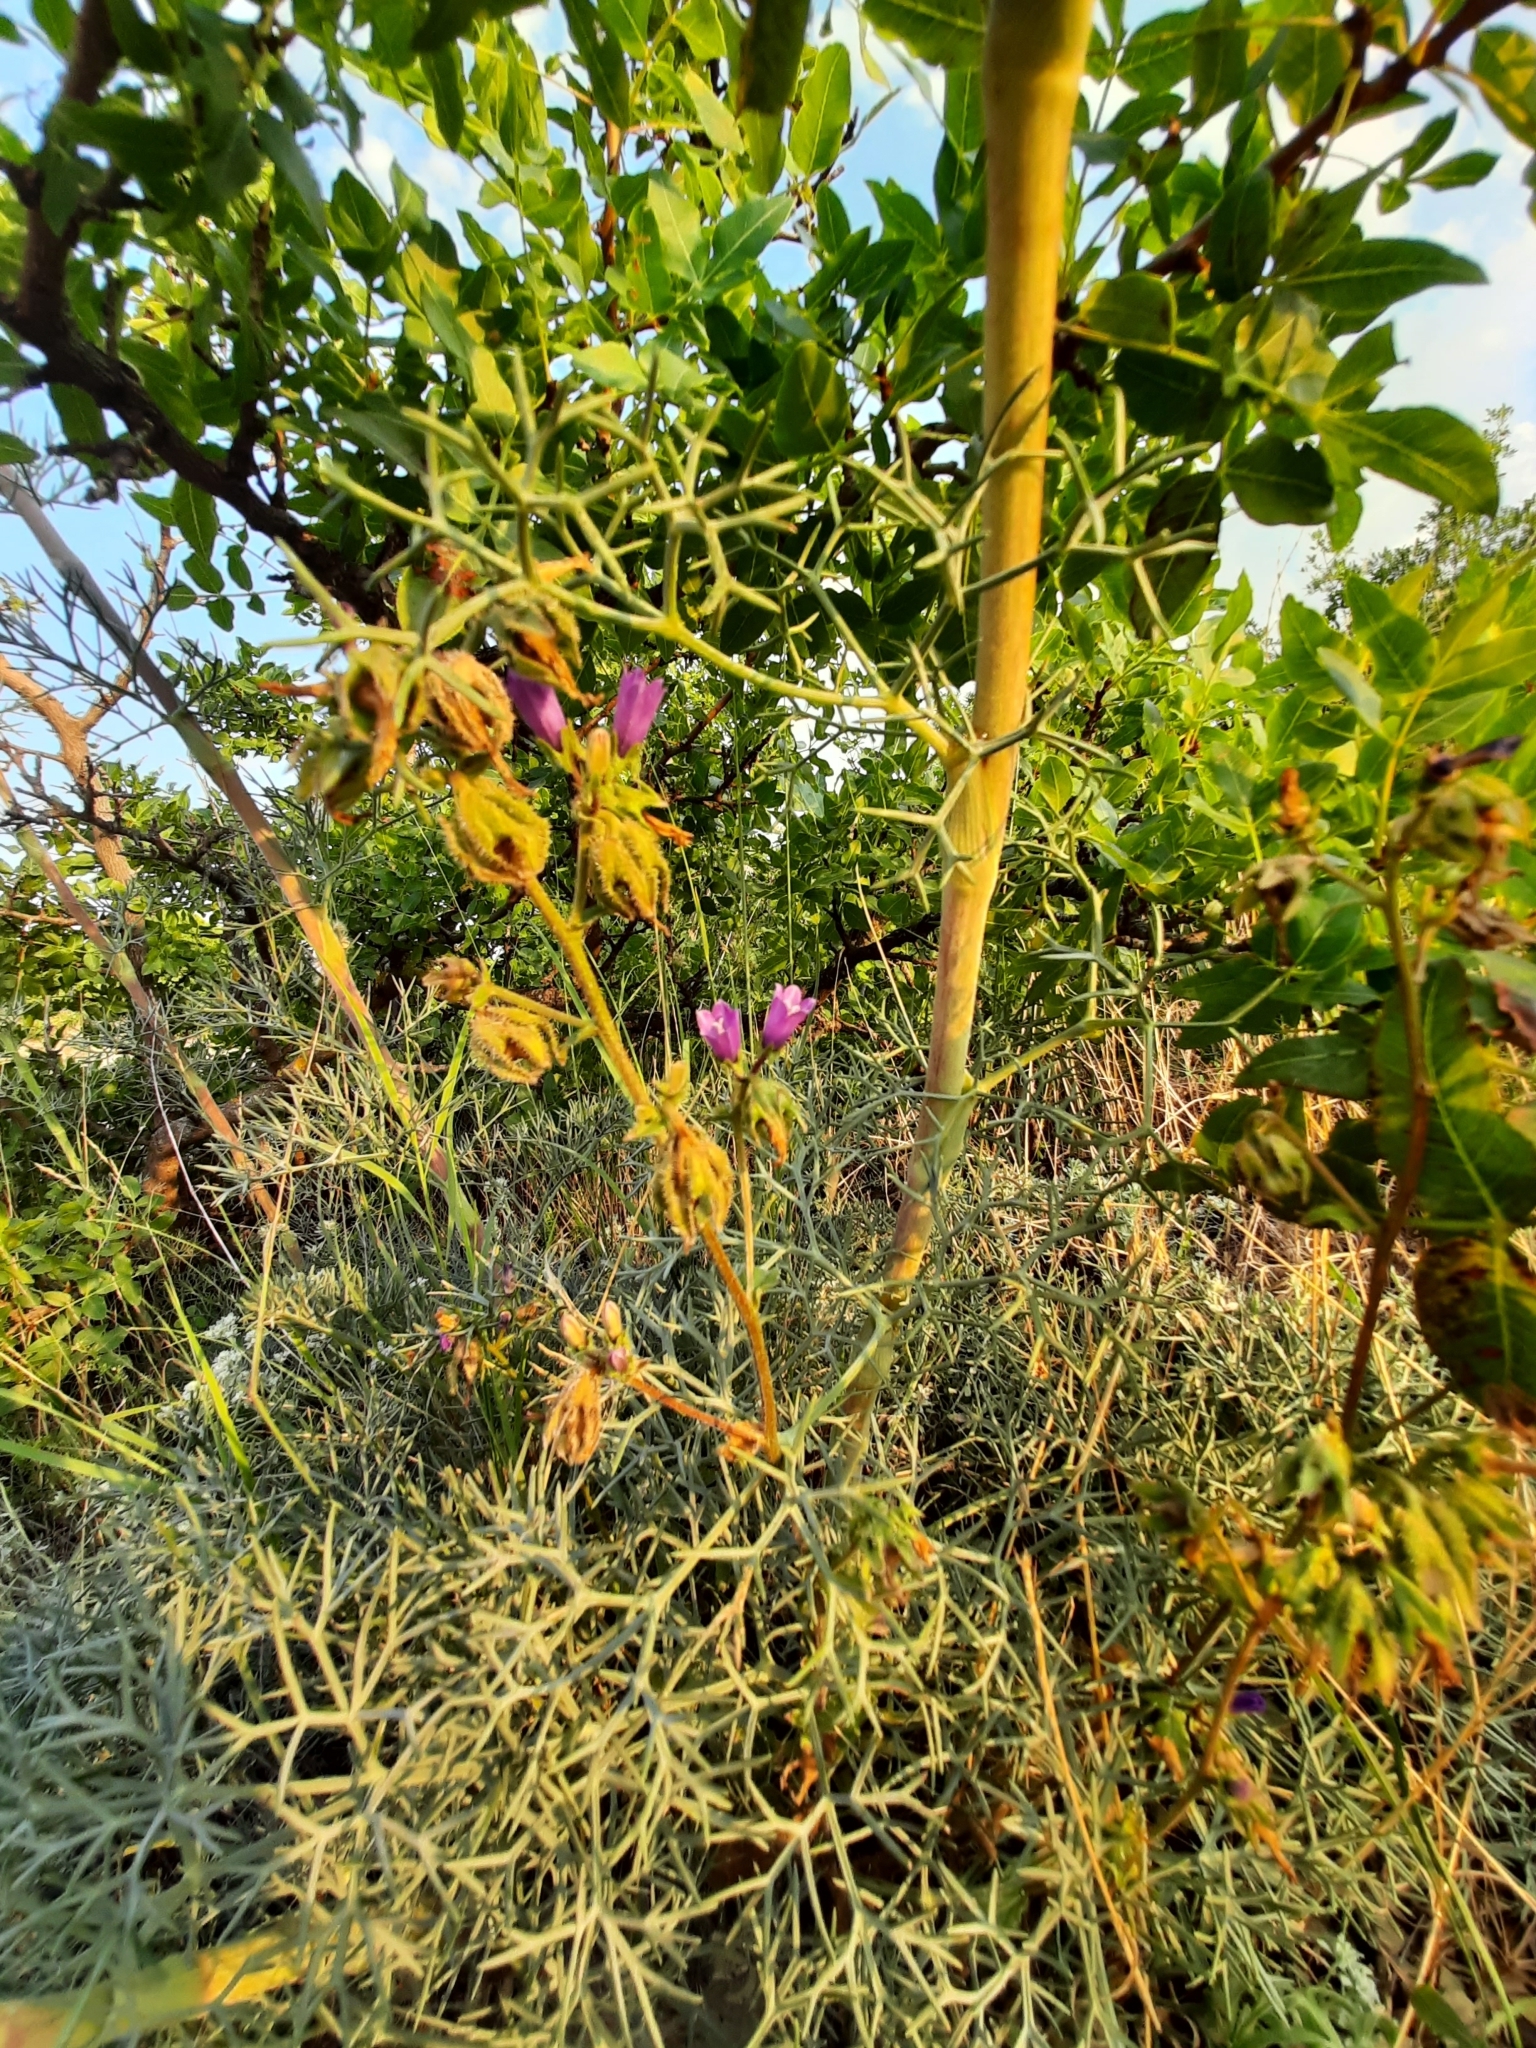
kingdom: Plantae
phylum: Tracheophyta
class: Magnoliopsida
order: Asterales
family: Campanulaceae
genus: Campanula
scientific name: Campanula komarovii
